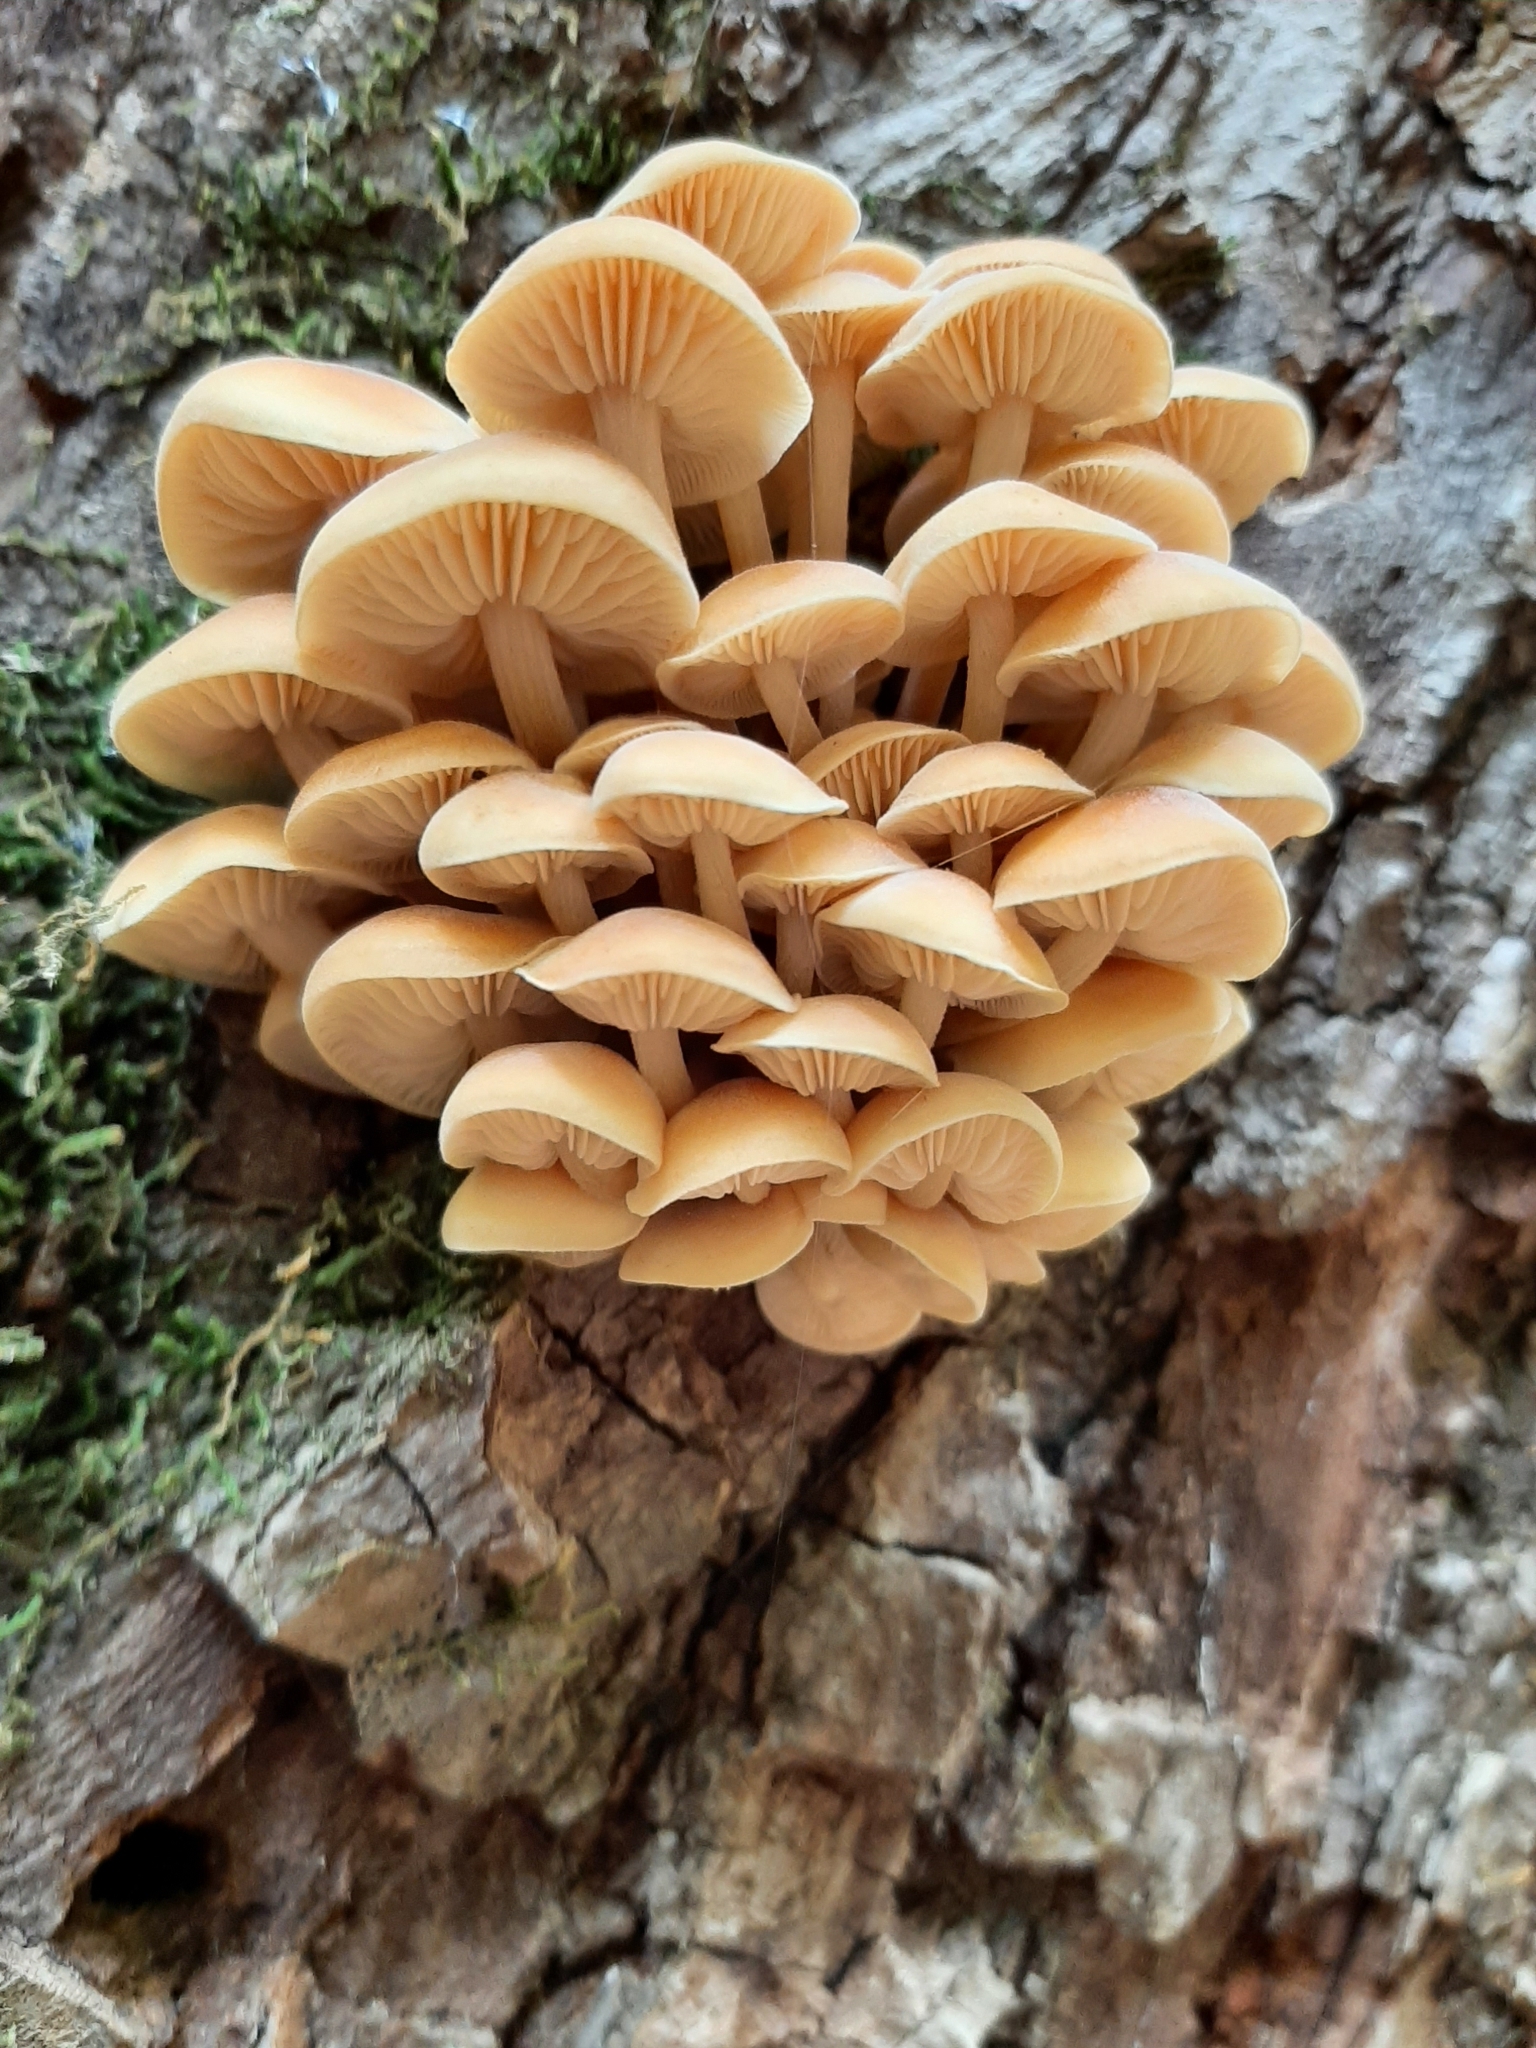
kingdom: Fungi
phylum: Basidiomycota
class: Agaricomycetes
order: Agaricales
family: Physalacriaceae
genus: Flammulina
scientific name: Flammulina velutipes
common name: Velvet shank
